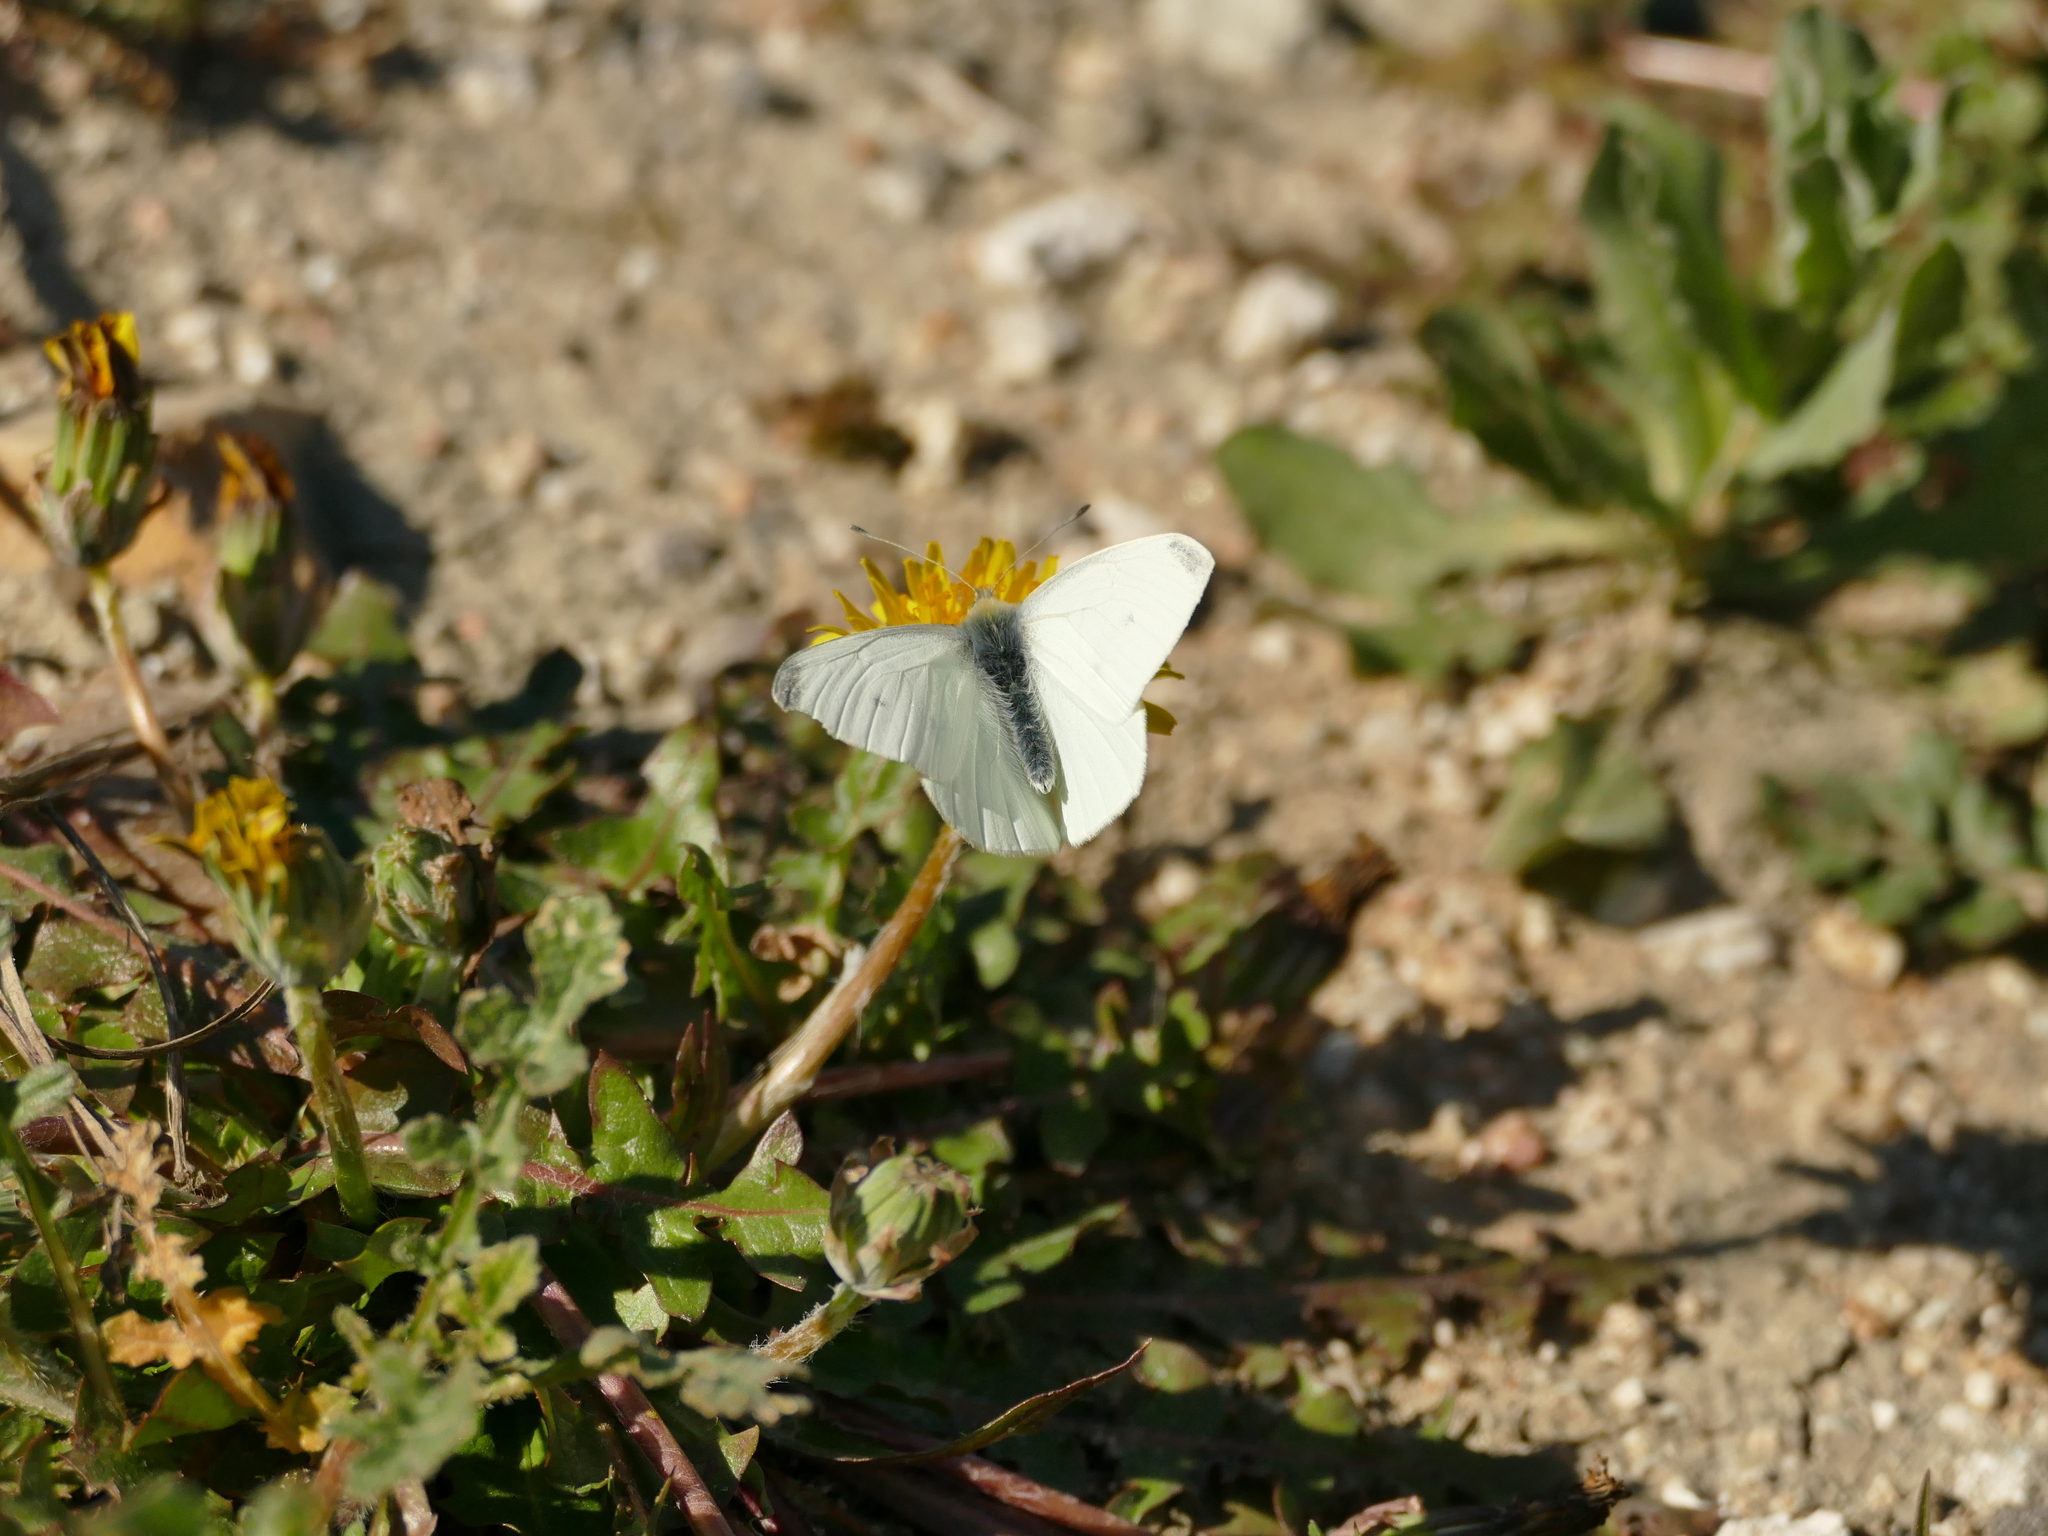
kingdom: Animalia
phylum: Arthropoda
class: Insecta
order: Lepidoptera
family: Pieridae
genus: Pieris
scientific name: Pieris rapae
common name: Small white
